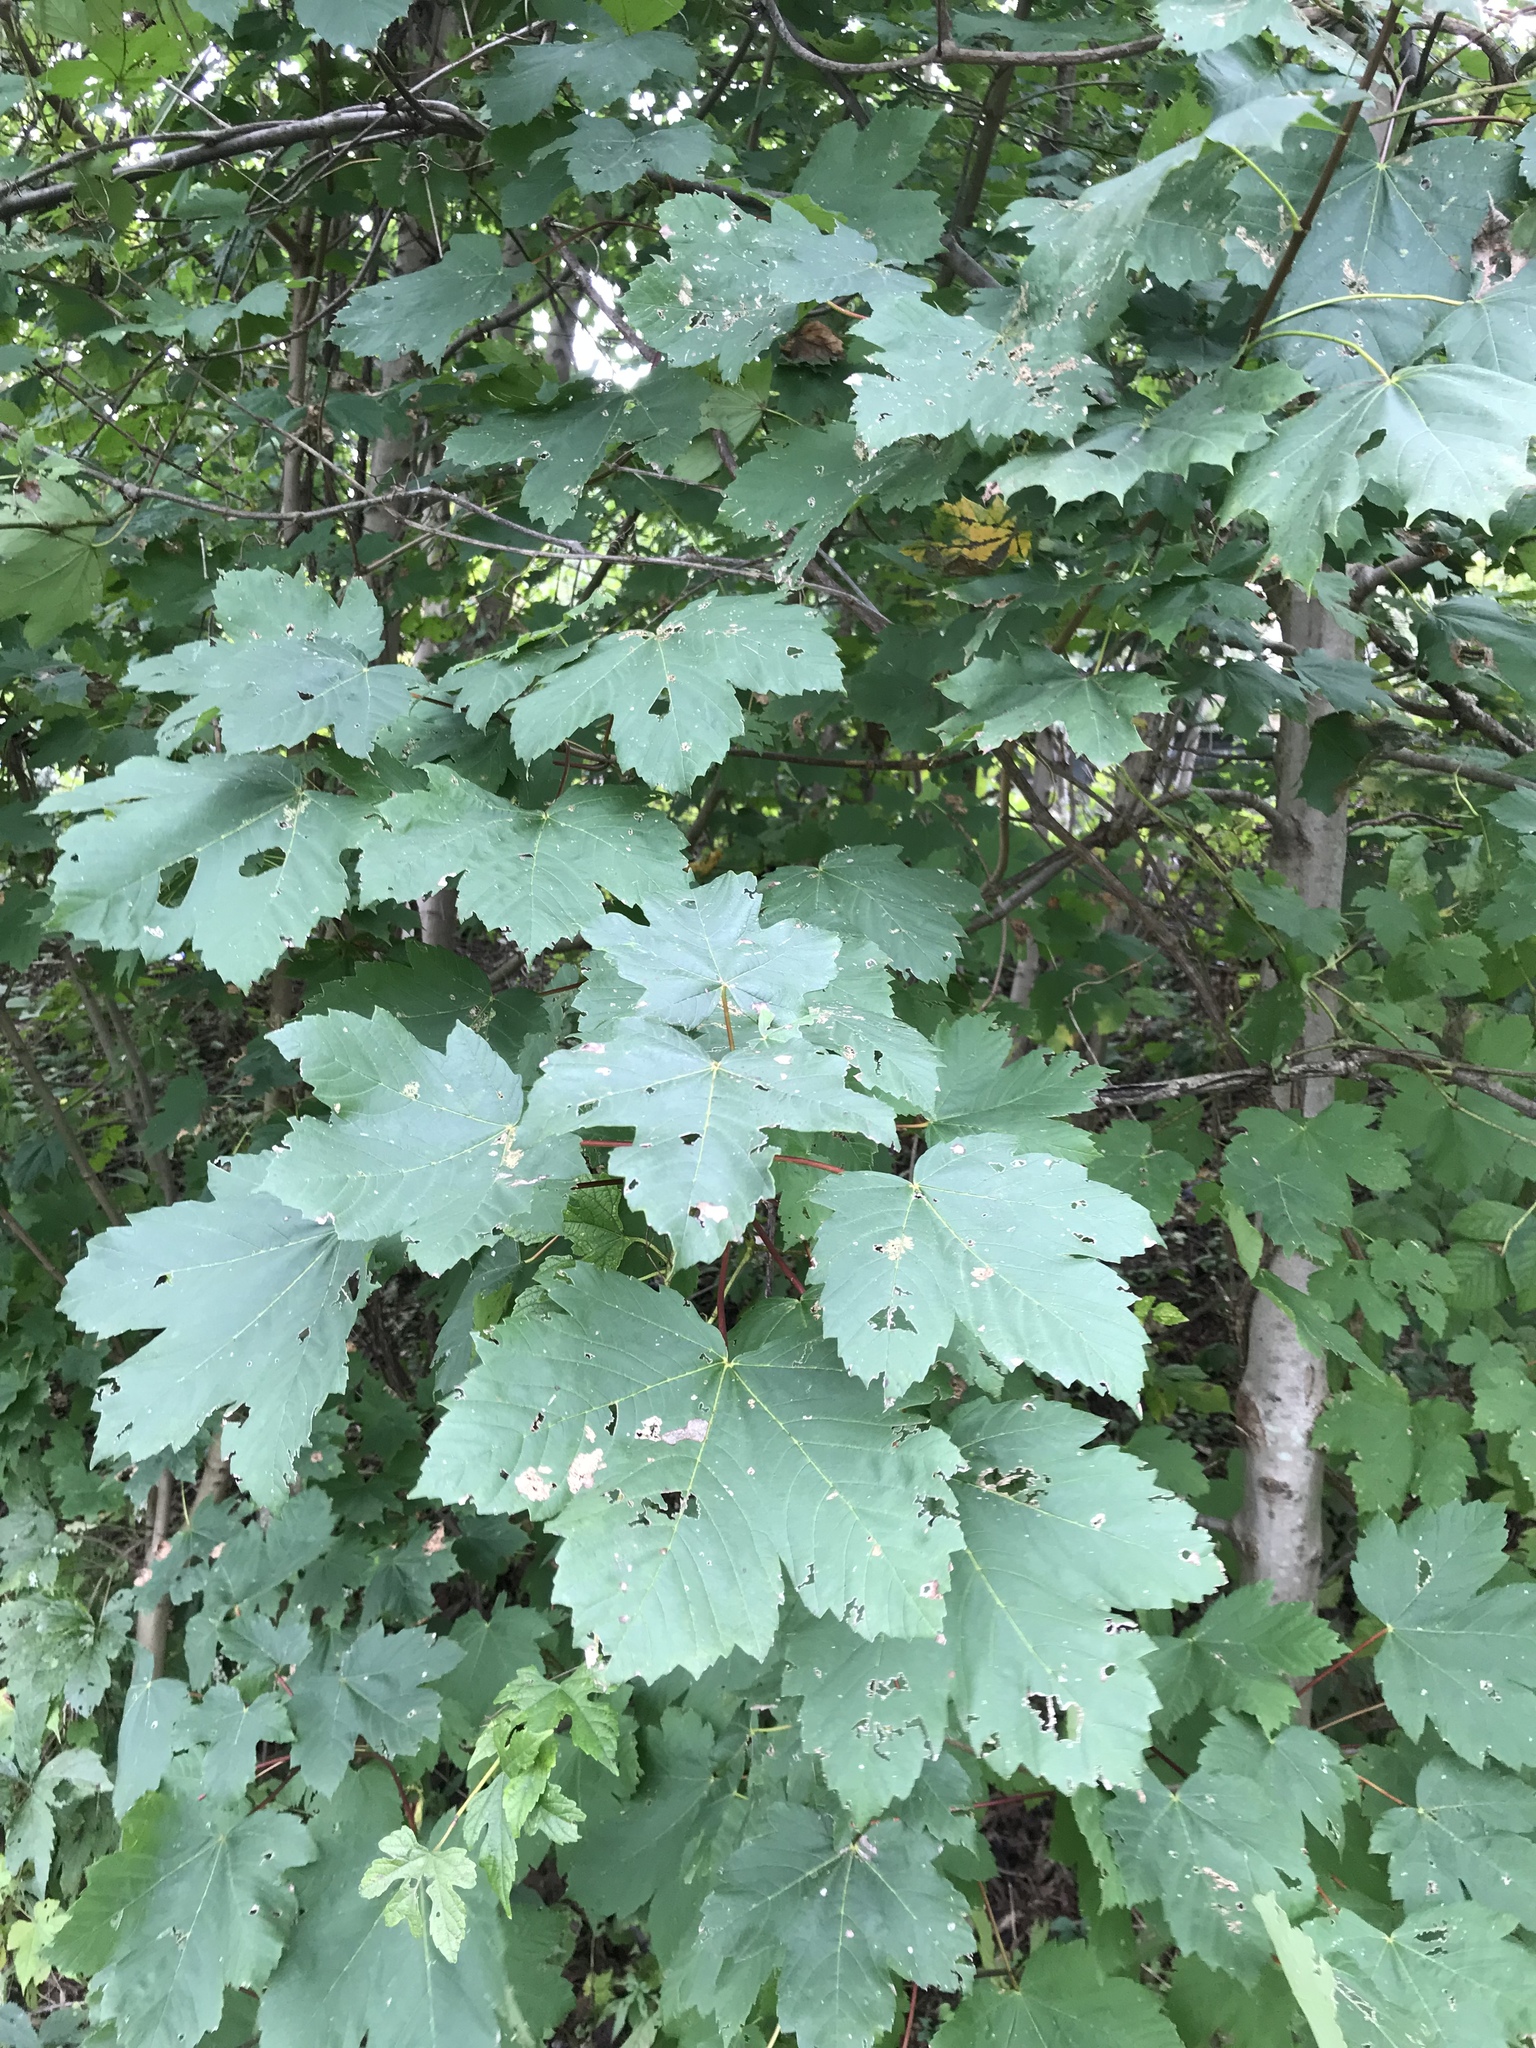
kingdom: Plantae
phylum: Tracheophyta
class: Magnoliopsida
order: Sapindales
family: Sapindaceae
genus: Acer
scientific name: Acer pseudoplatanus
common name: Sycamore
